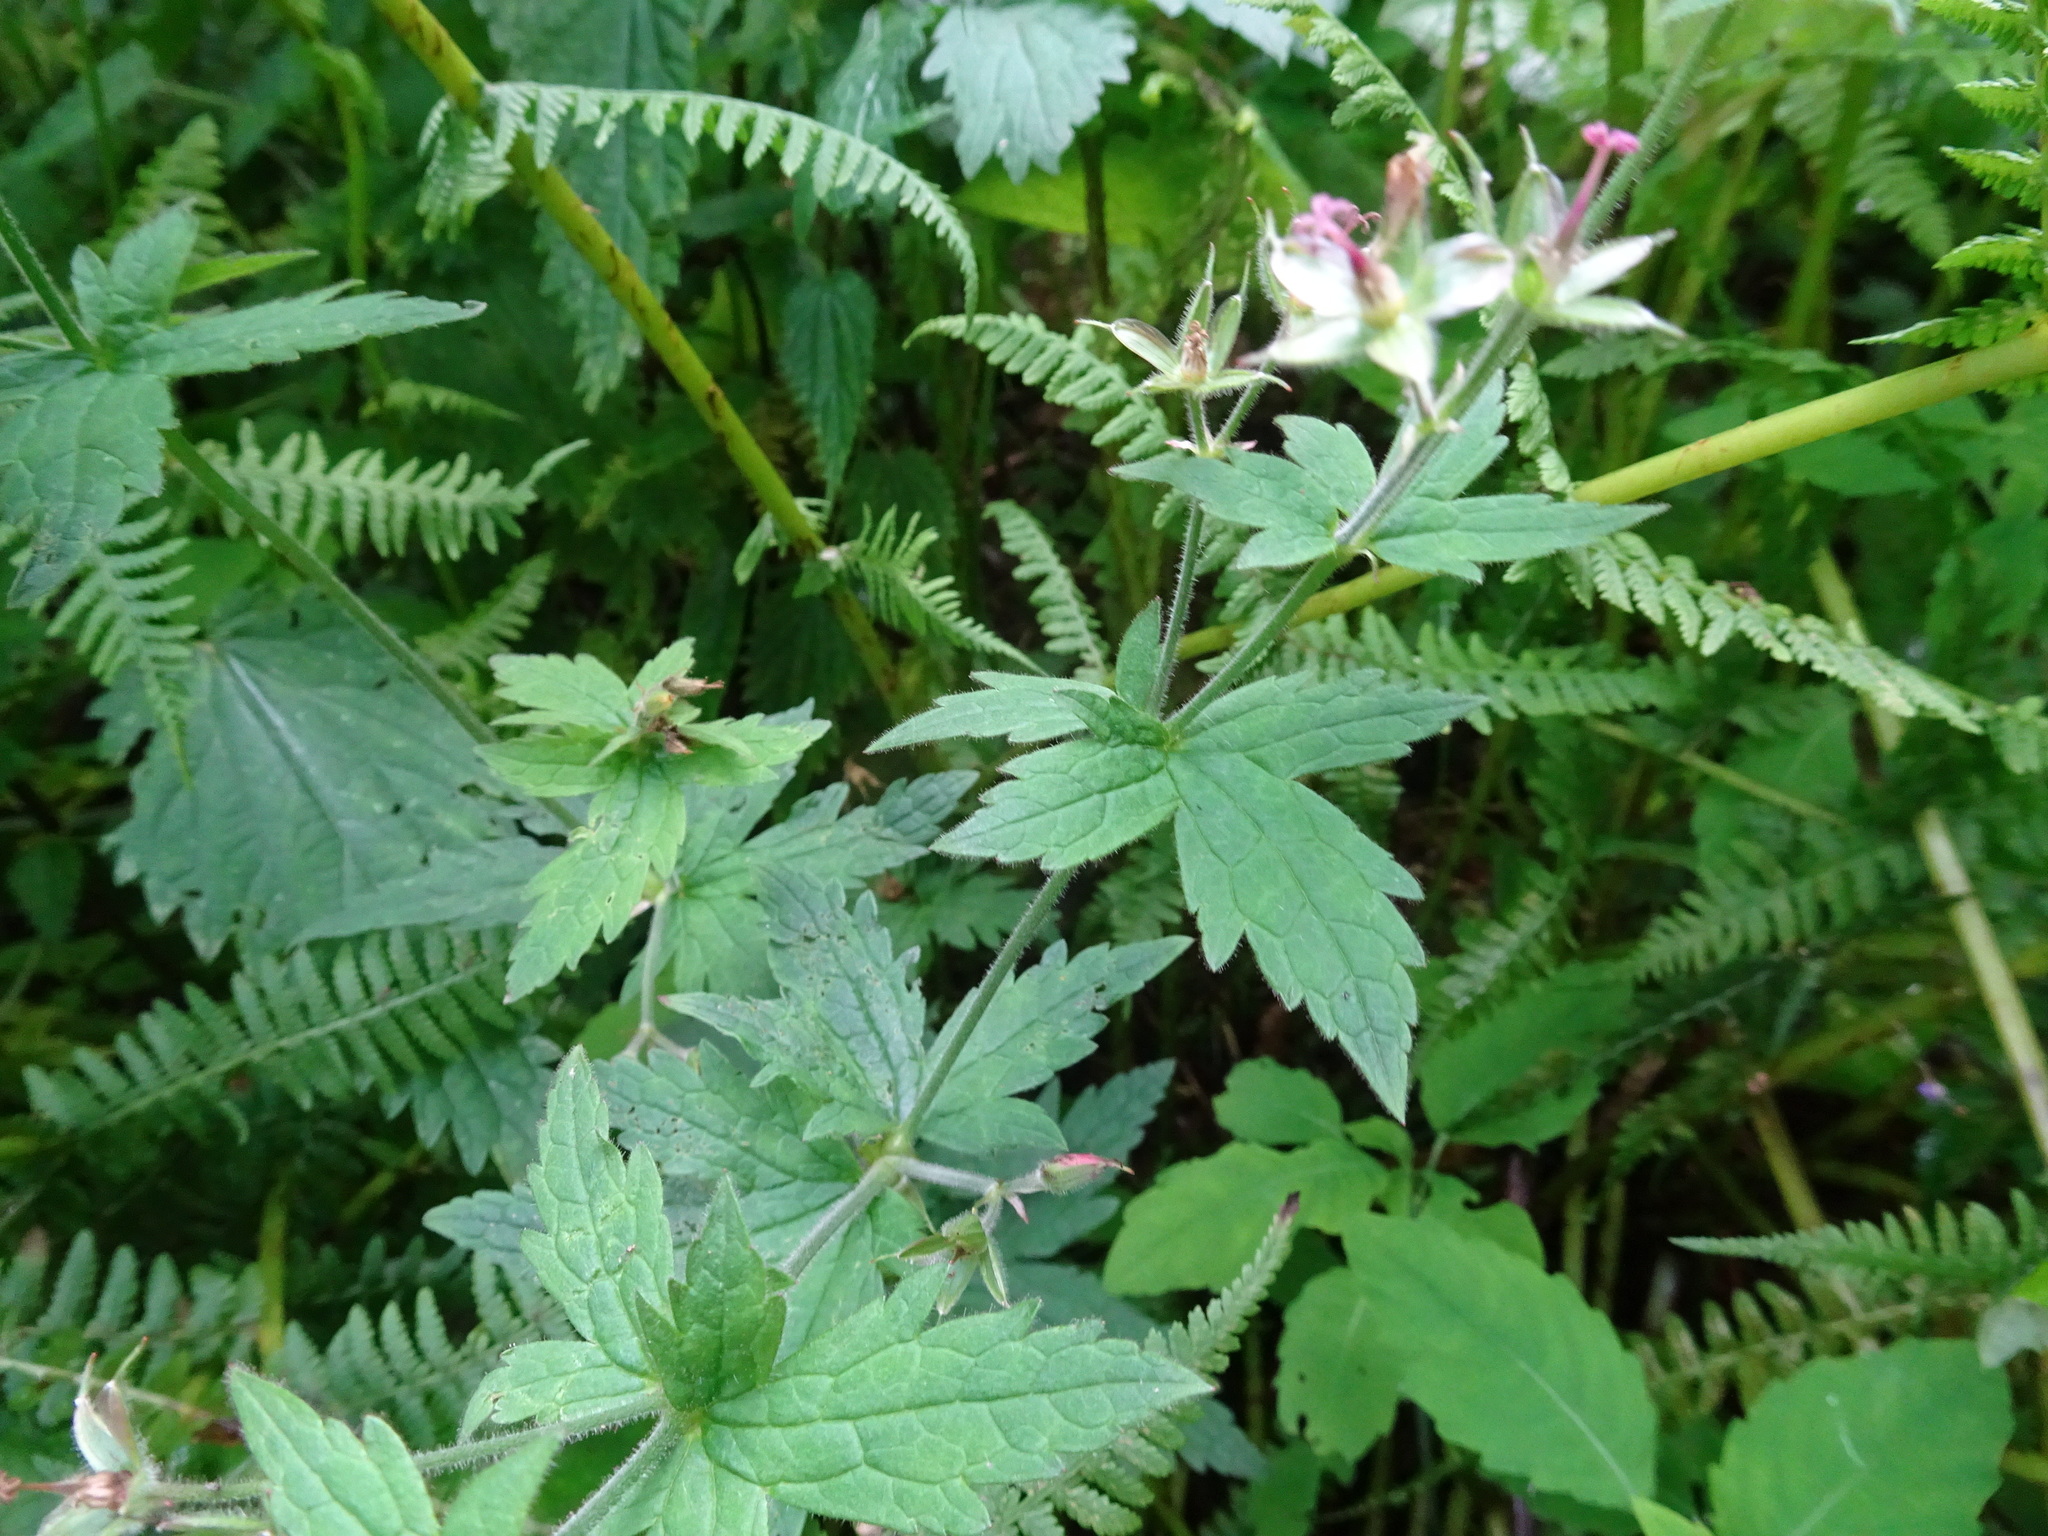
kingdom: Plantae
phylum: Tracheophyta
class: Magnoliopsida
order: Geraniales
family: Geraniaceae
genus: Geranium
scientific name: Geranium sylvaticum
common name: Wood crane's-bill
